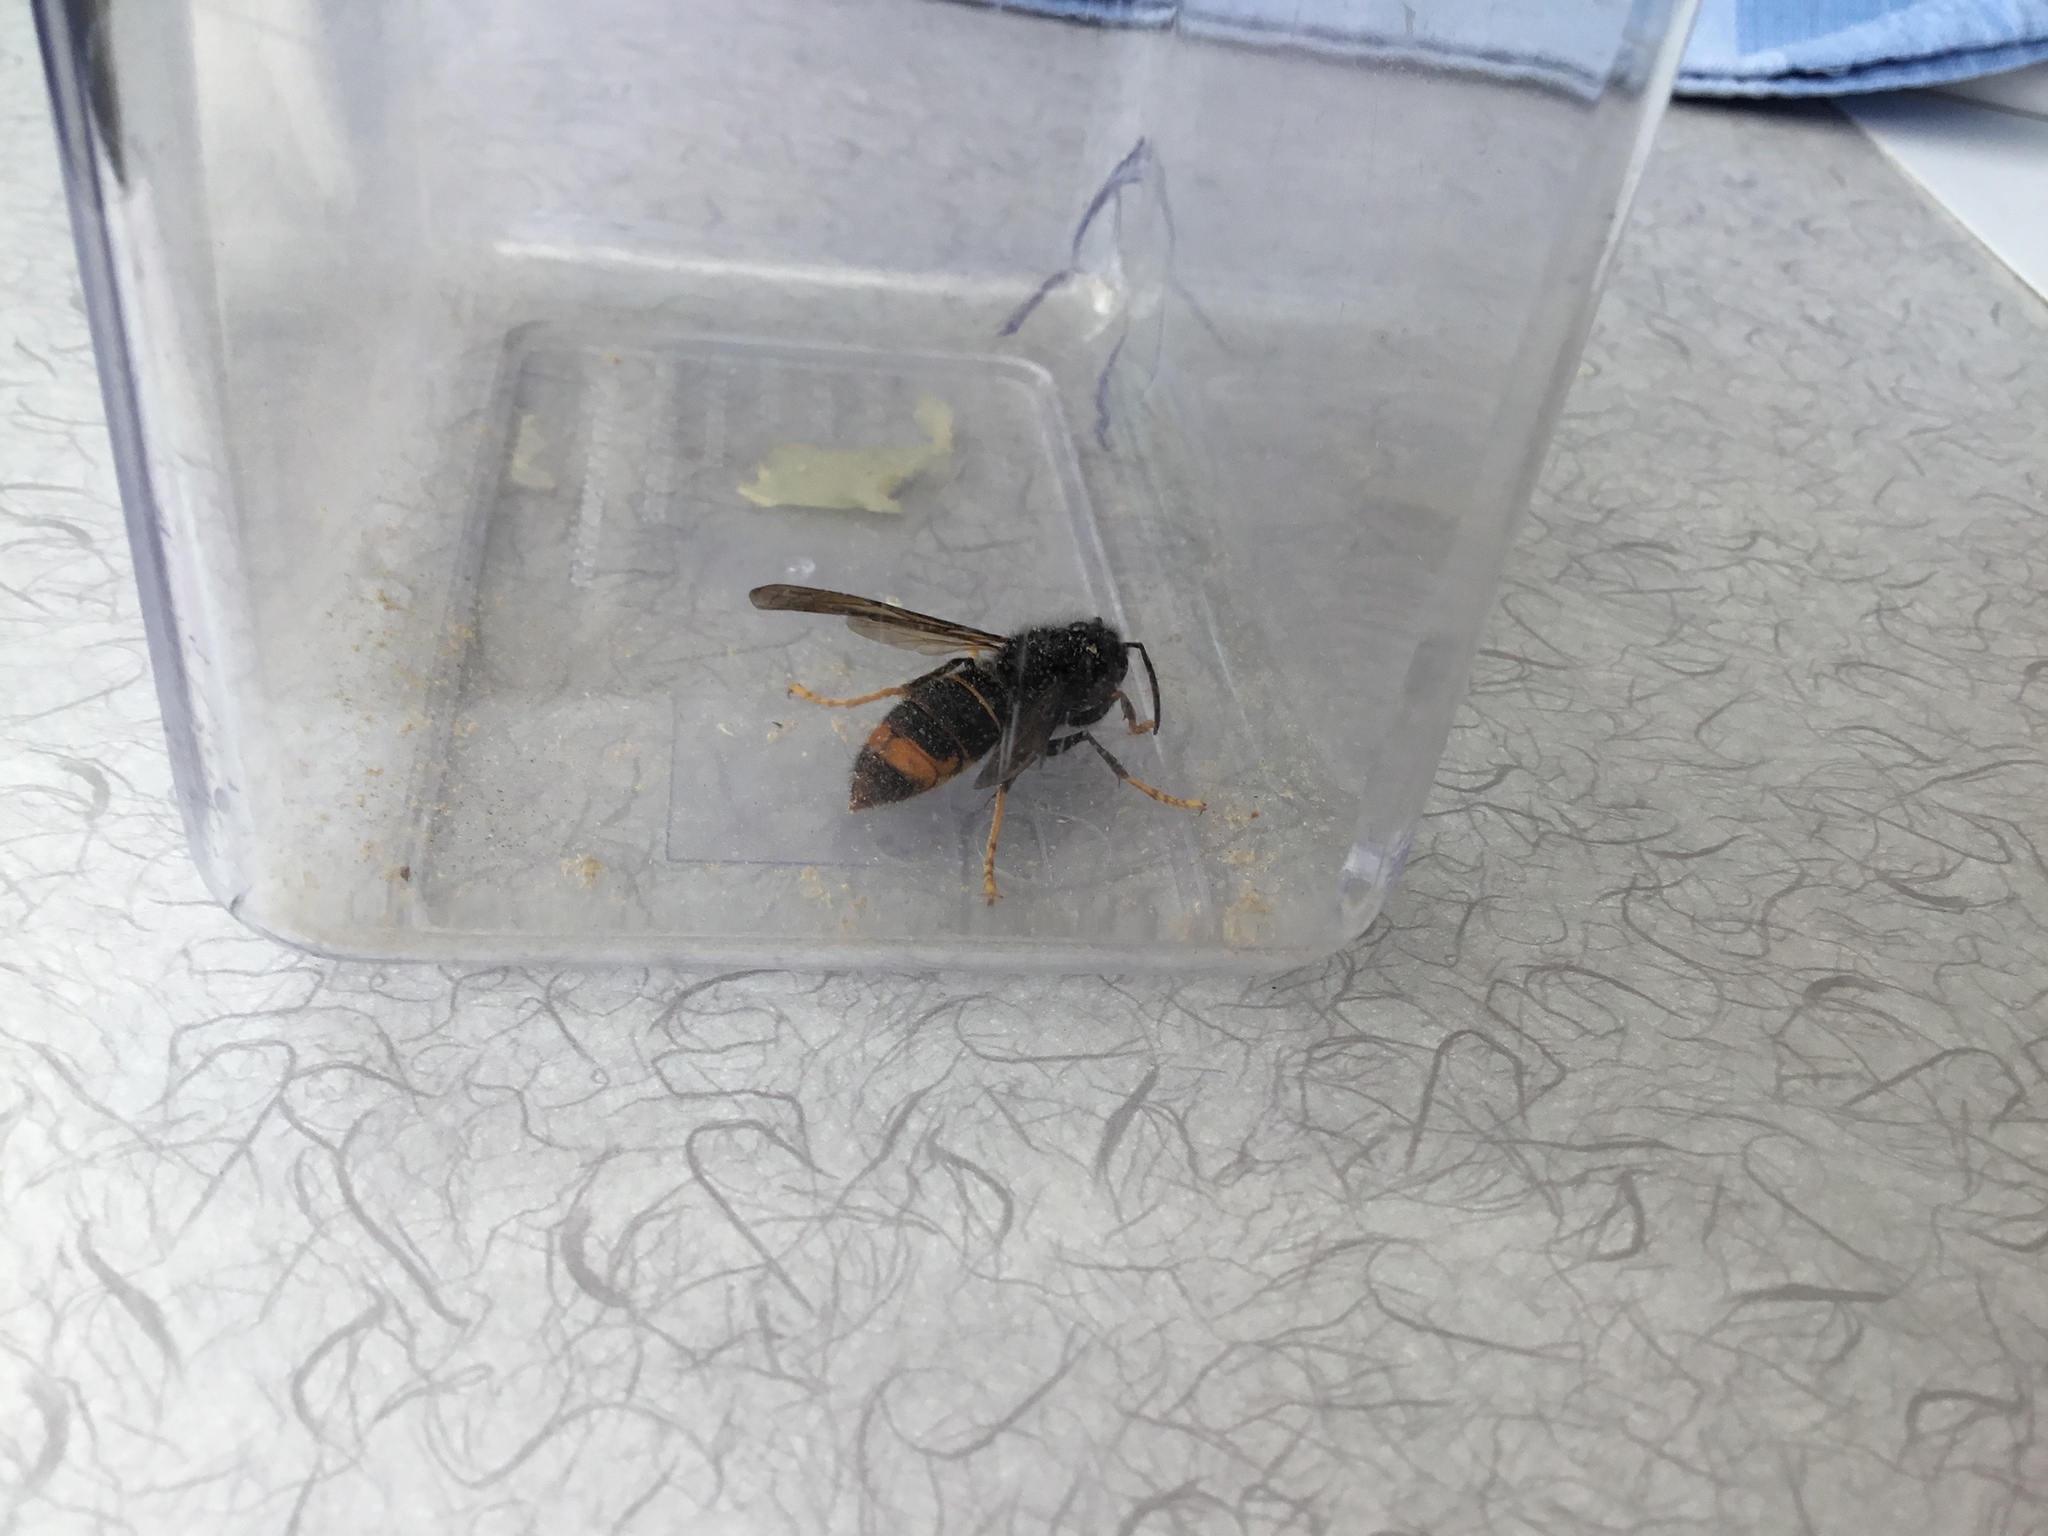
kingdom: Animalia
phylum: Arthropoda
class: Insecta
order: Hymenoptera
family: Vespidae
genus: Vespa
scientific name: Vespa velutina
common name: Asian hornet
